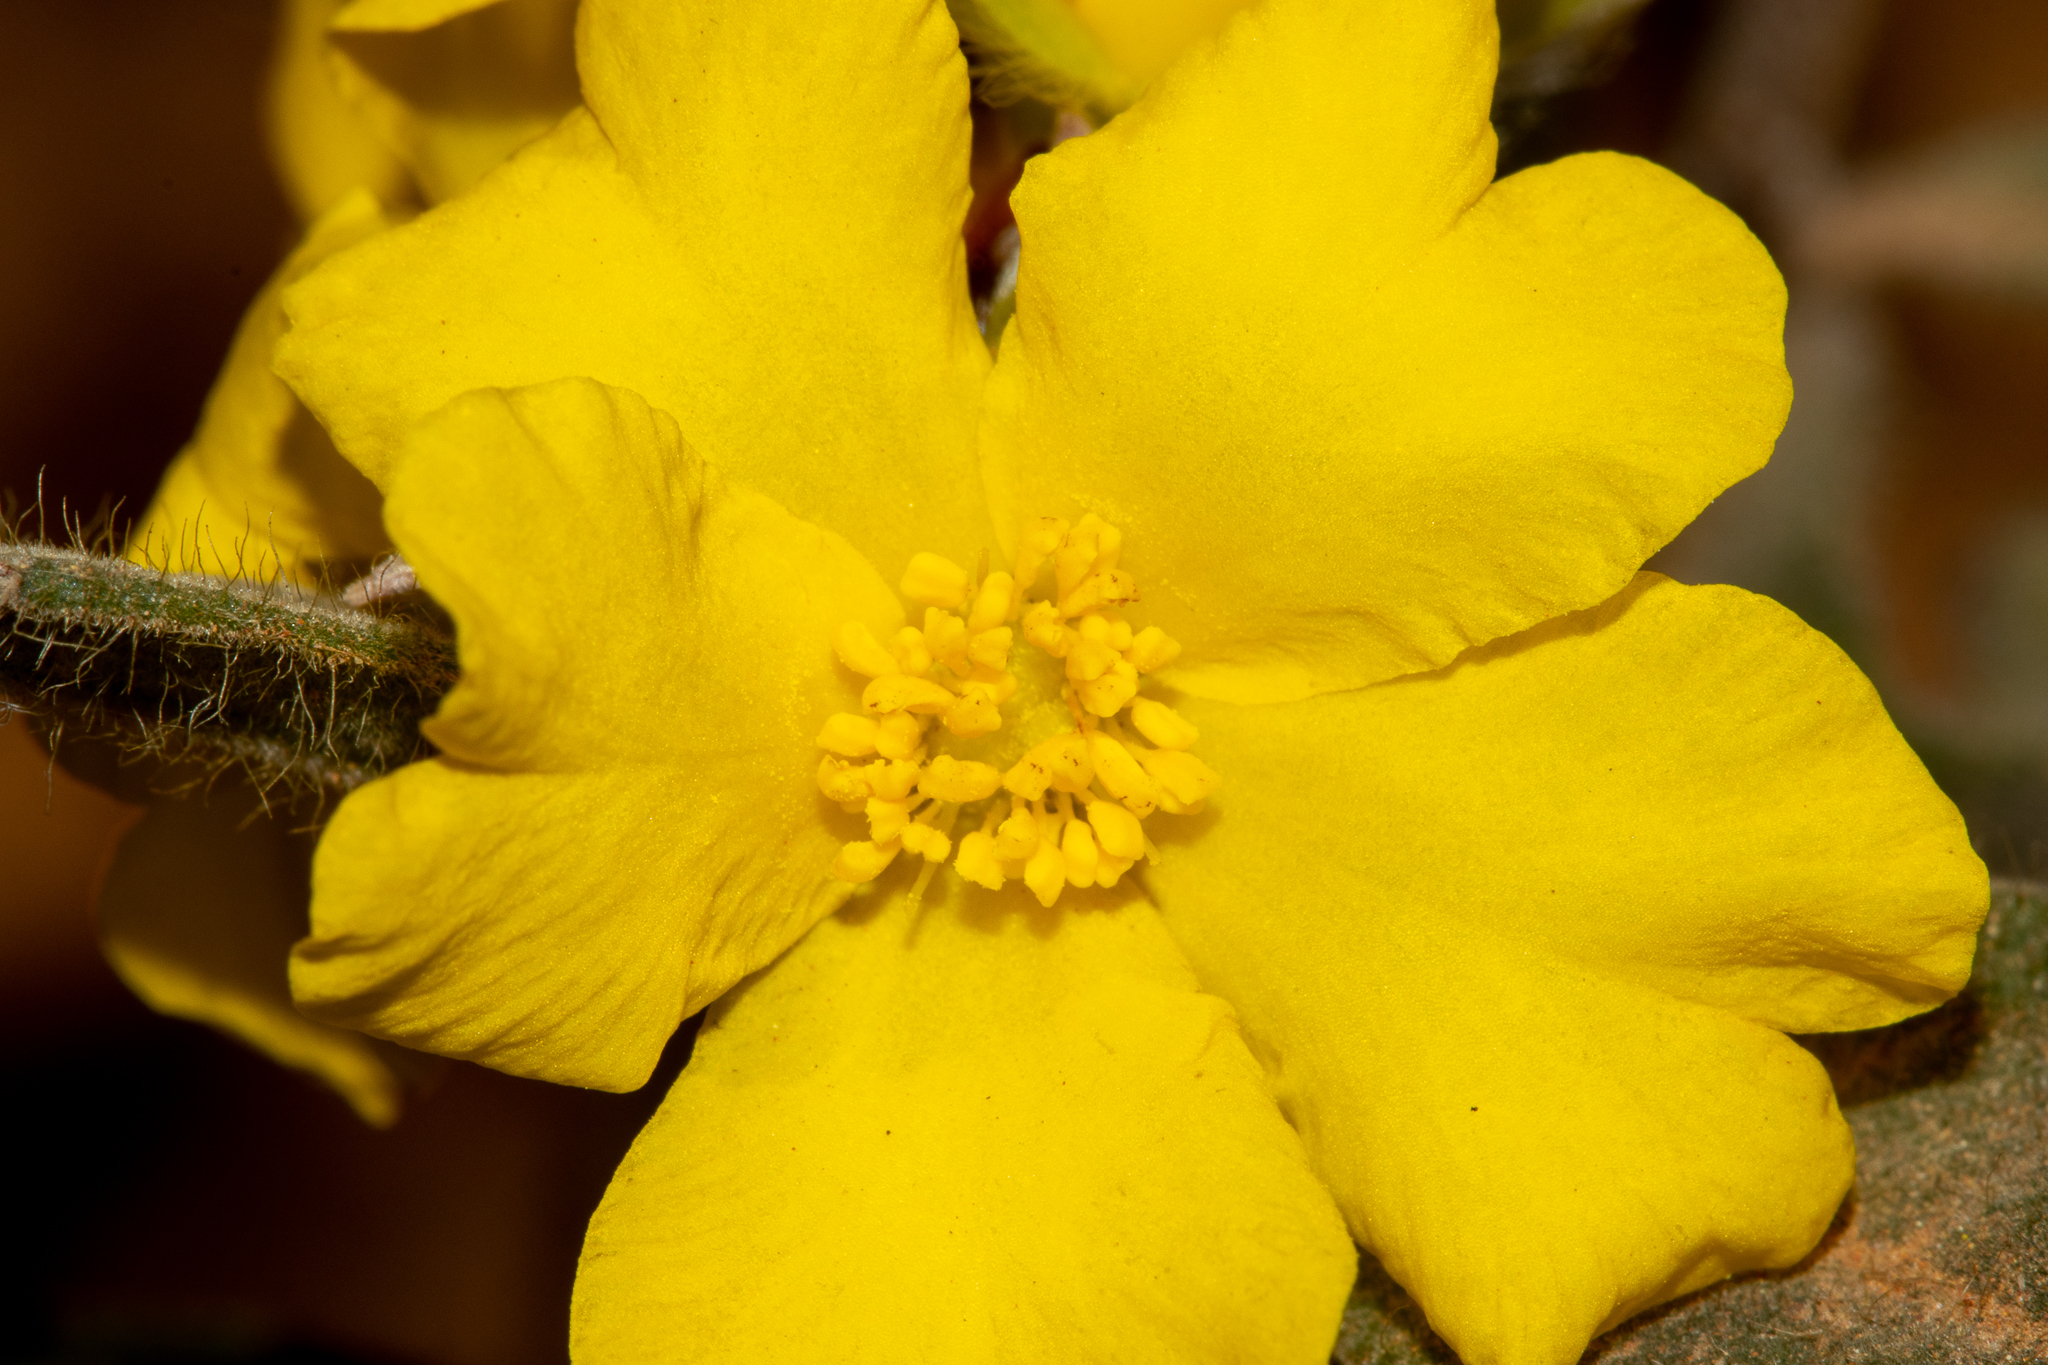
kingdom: Plantae
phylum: Tracheophyta
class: Magnoliopsida
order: Dilleniales
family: Dilleniaceae
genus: Hibbertia
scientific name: Hibbertia montana
